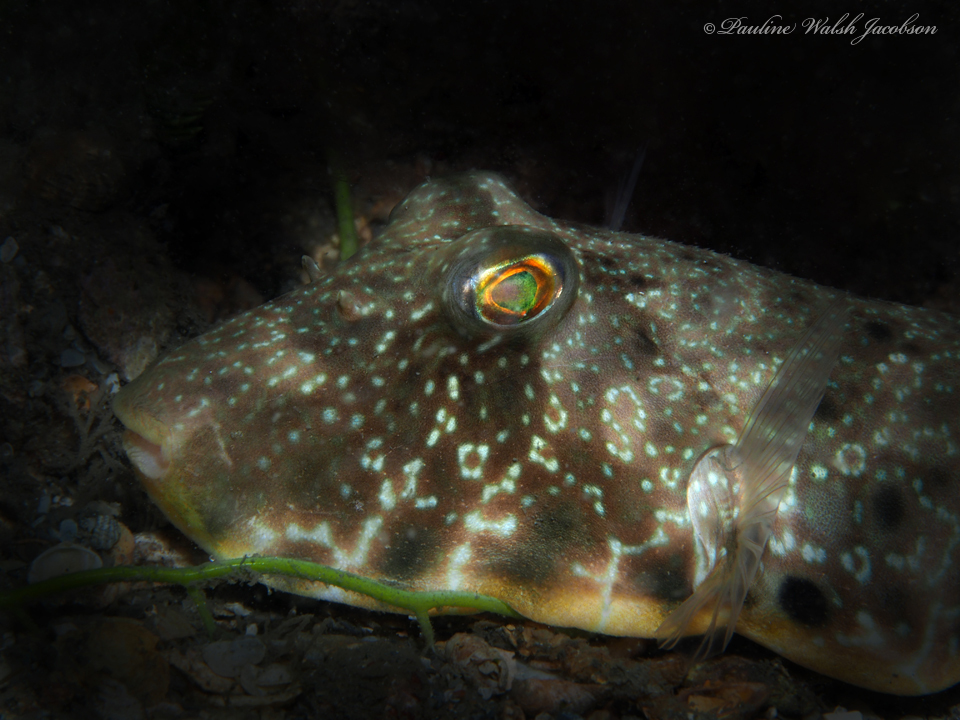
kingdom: Animalia
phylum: Chordata
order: Tetraodontiformes
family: Tetraodontidae
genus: Sphoeroides
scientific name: Sphoeroides nephelus
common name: Southern puffer
